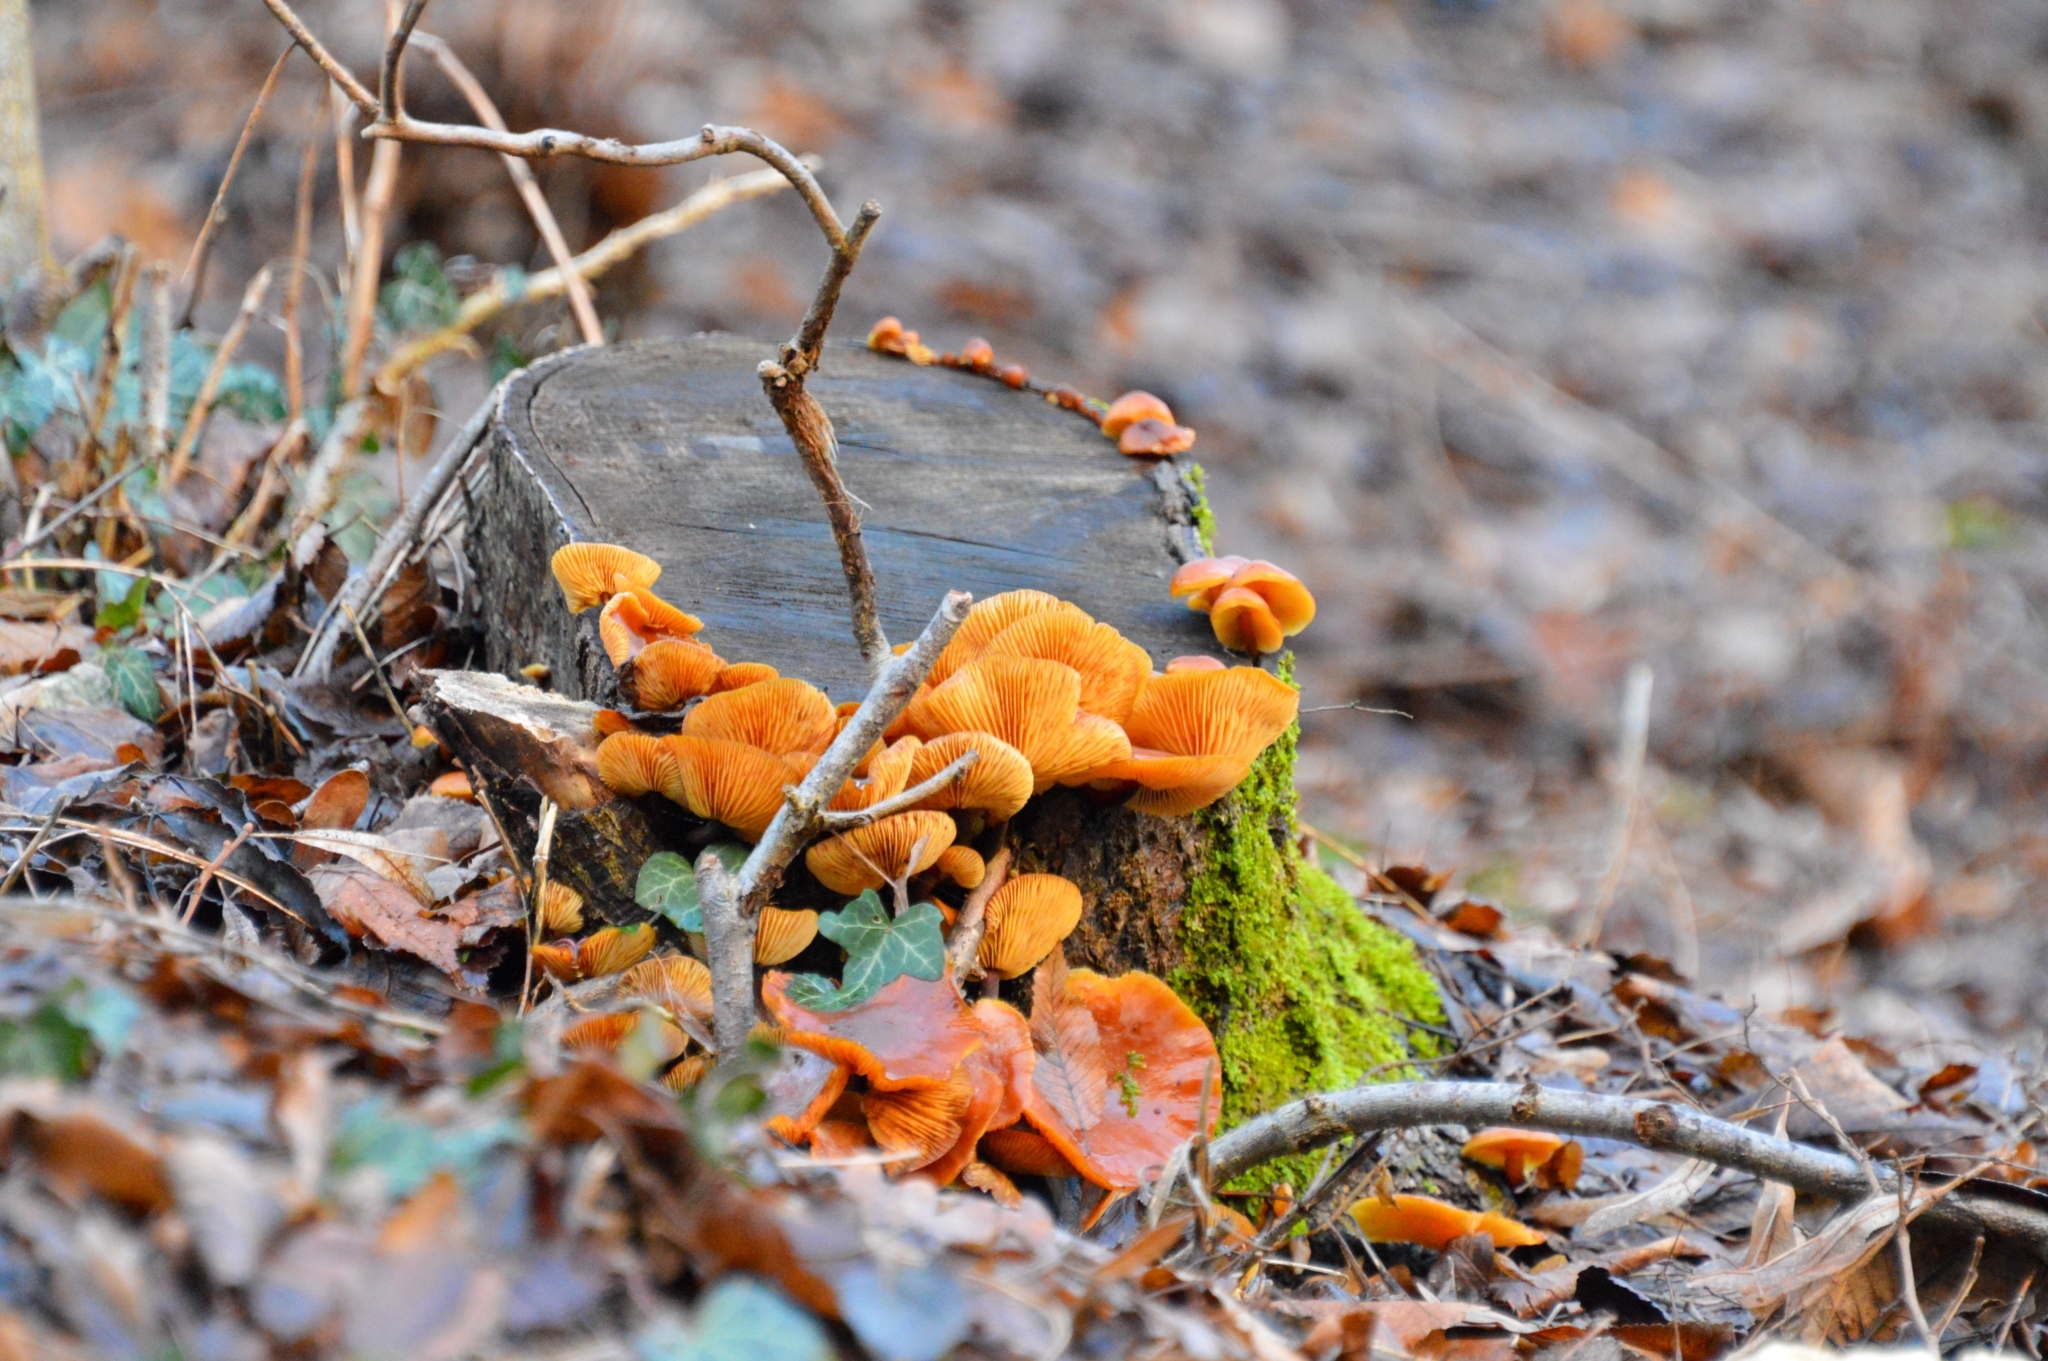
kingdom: Fungi
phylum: Basidiomycota
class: Agaricomycetes
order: Agaricales
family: Physalacriaceae
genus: Flammulina
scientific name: Flammulina
